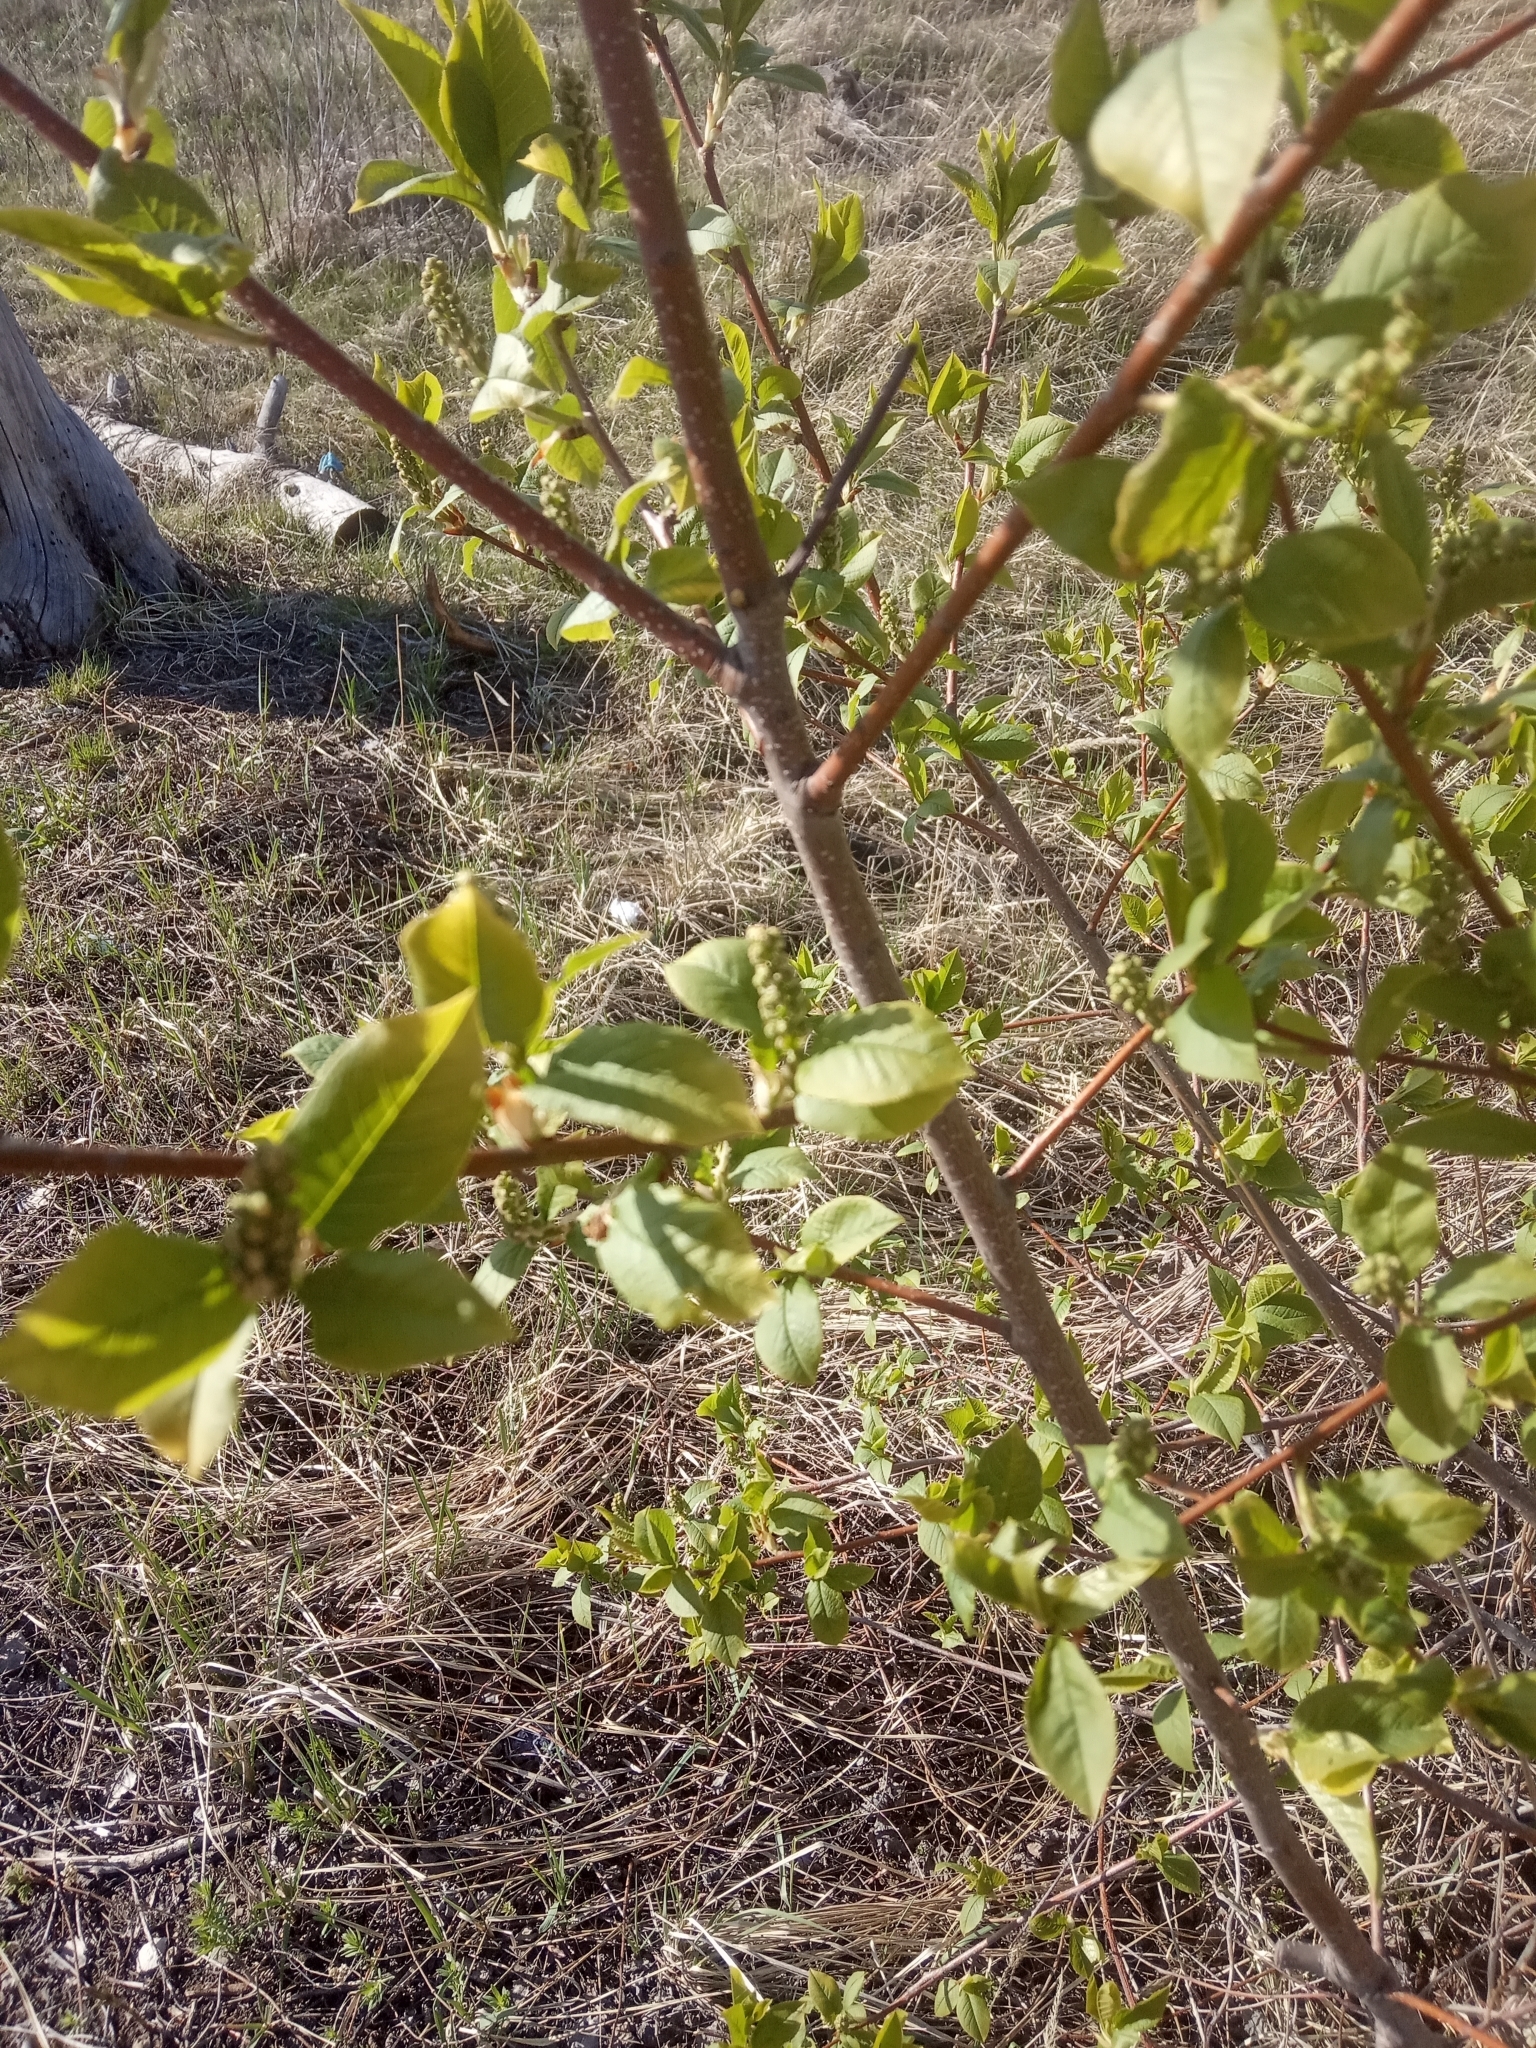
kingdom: Plantae
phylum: Tracheophyta
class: Magnoliopsida
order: Rosales
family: Rosaceae
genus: Prunus
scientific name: Prunus padus
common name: Bird cherry
